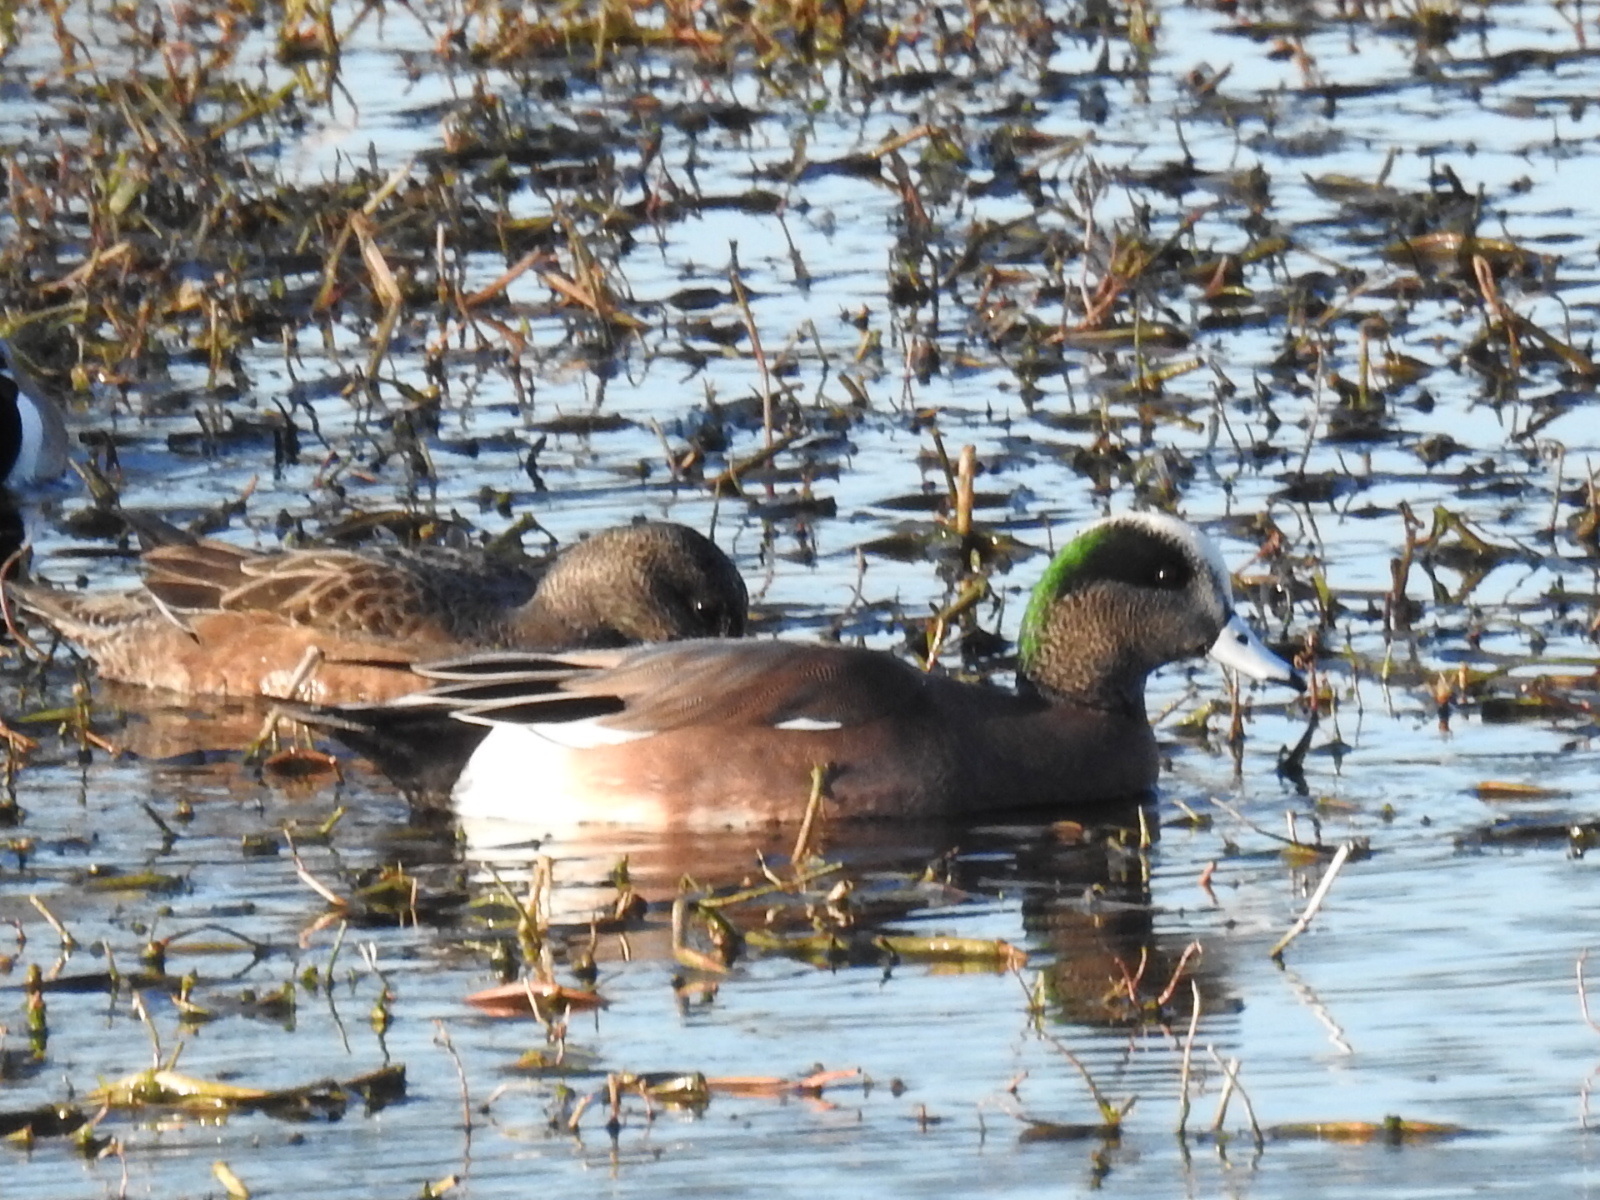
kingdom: Animalia
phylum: Chordata
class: Aves
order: Anseriformes
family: Anatidae
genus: Mareca
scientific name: Mareca americana
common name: American wigeon
